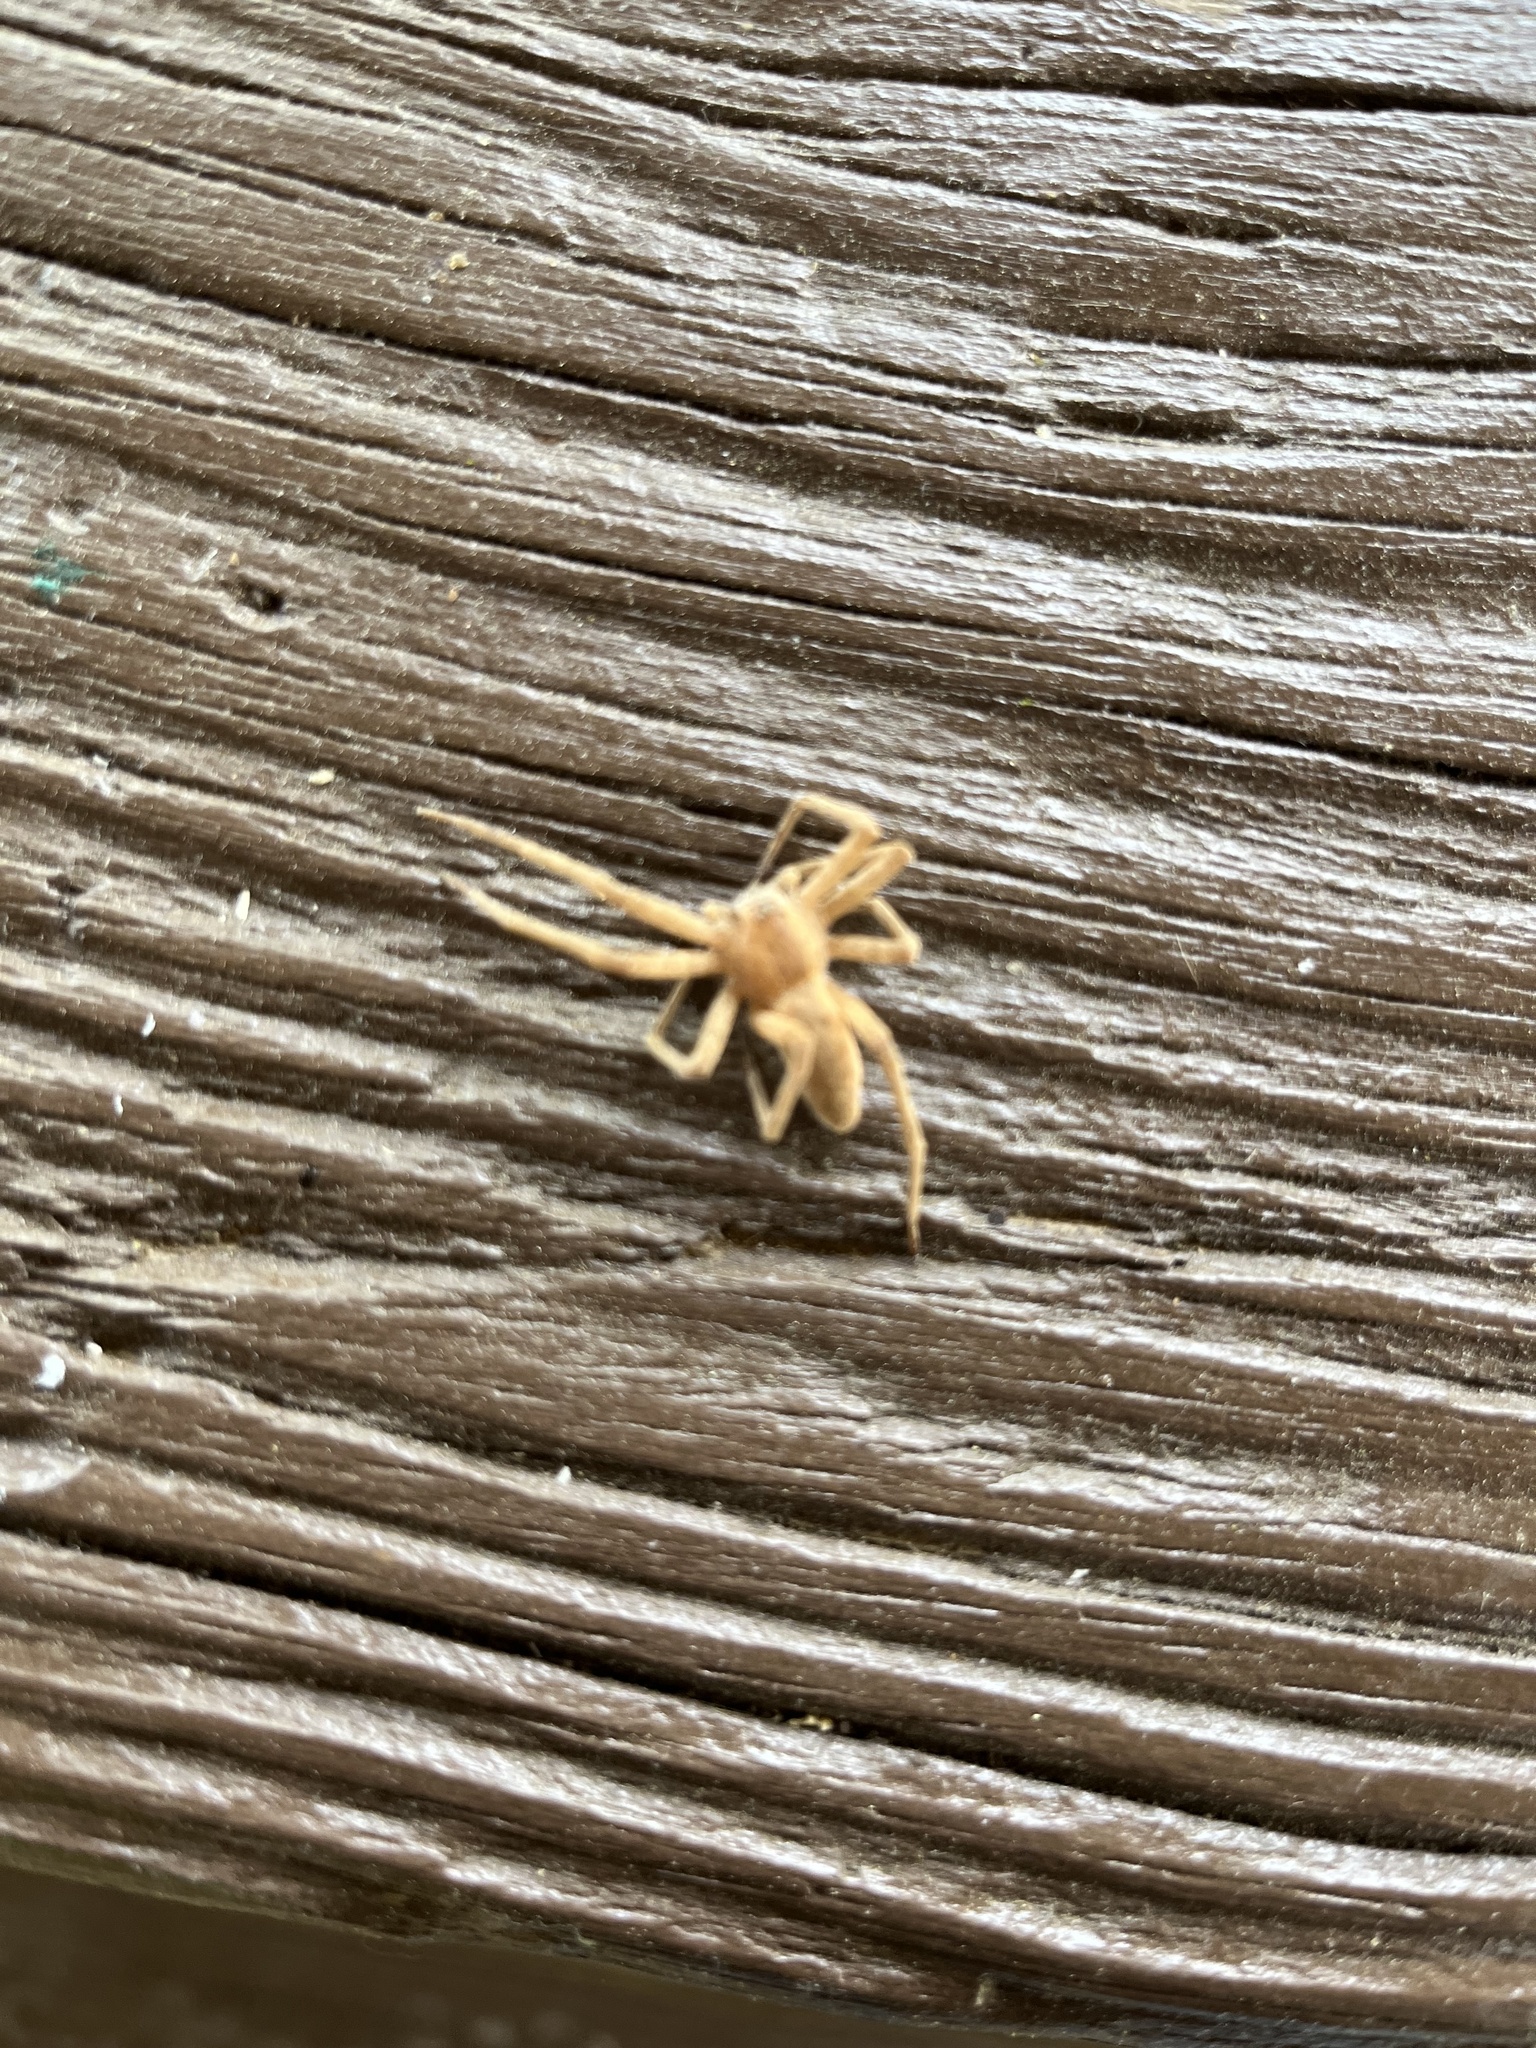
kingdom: Animalia
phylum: Arthropoda
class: Arachnida
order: Araneae
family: Pisauridae
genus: Pisaurina
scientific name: Pisaurina mira
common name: American nursery web spider
